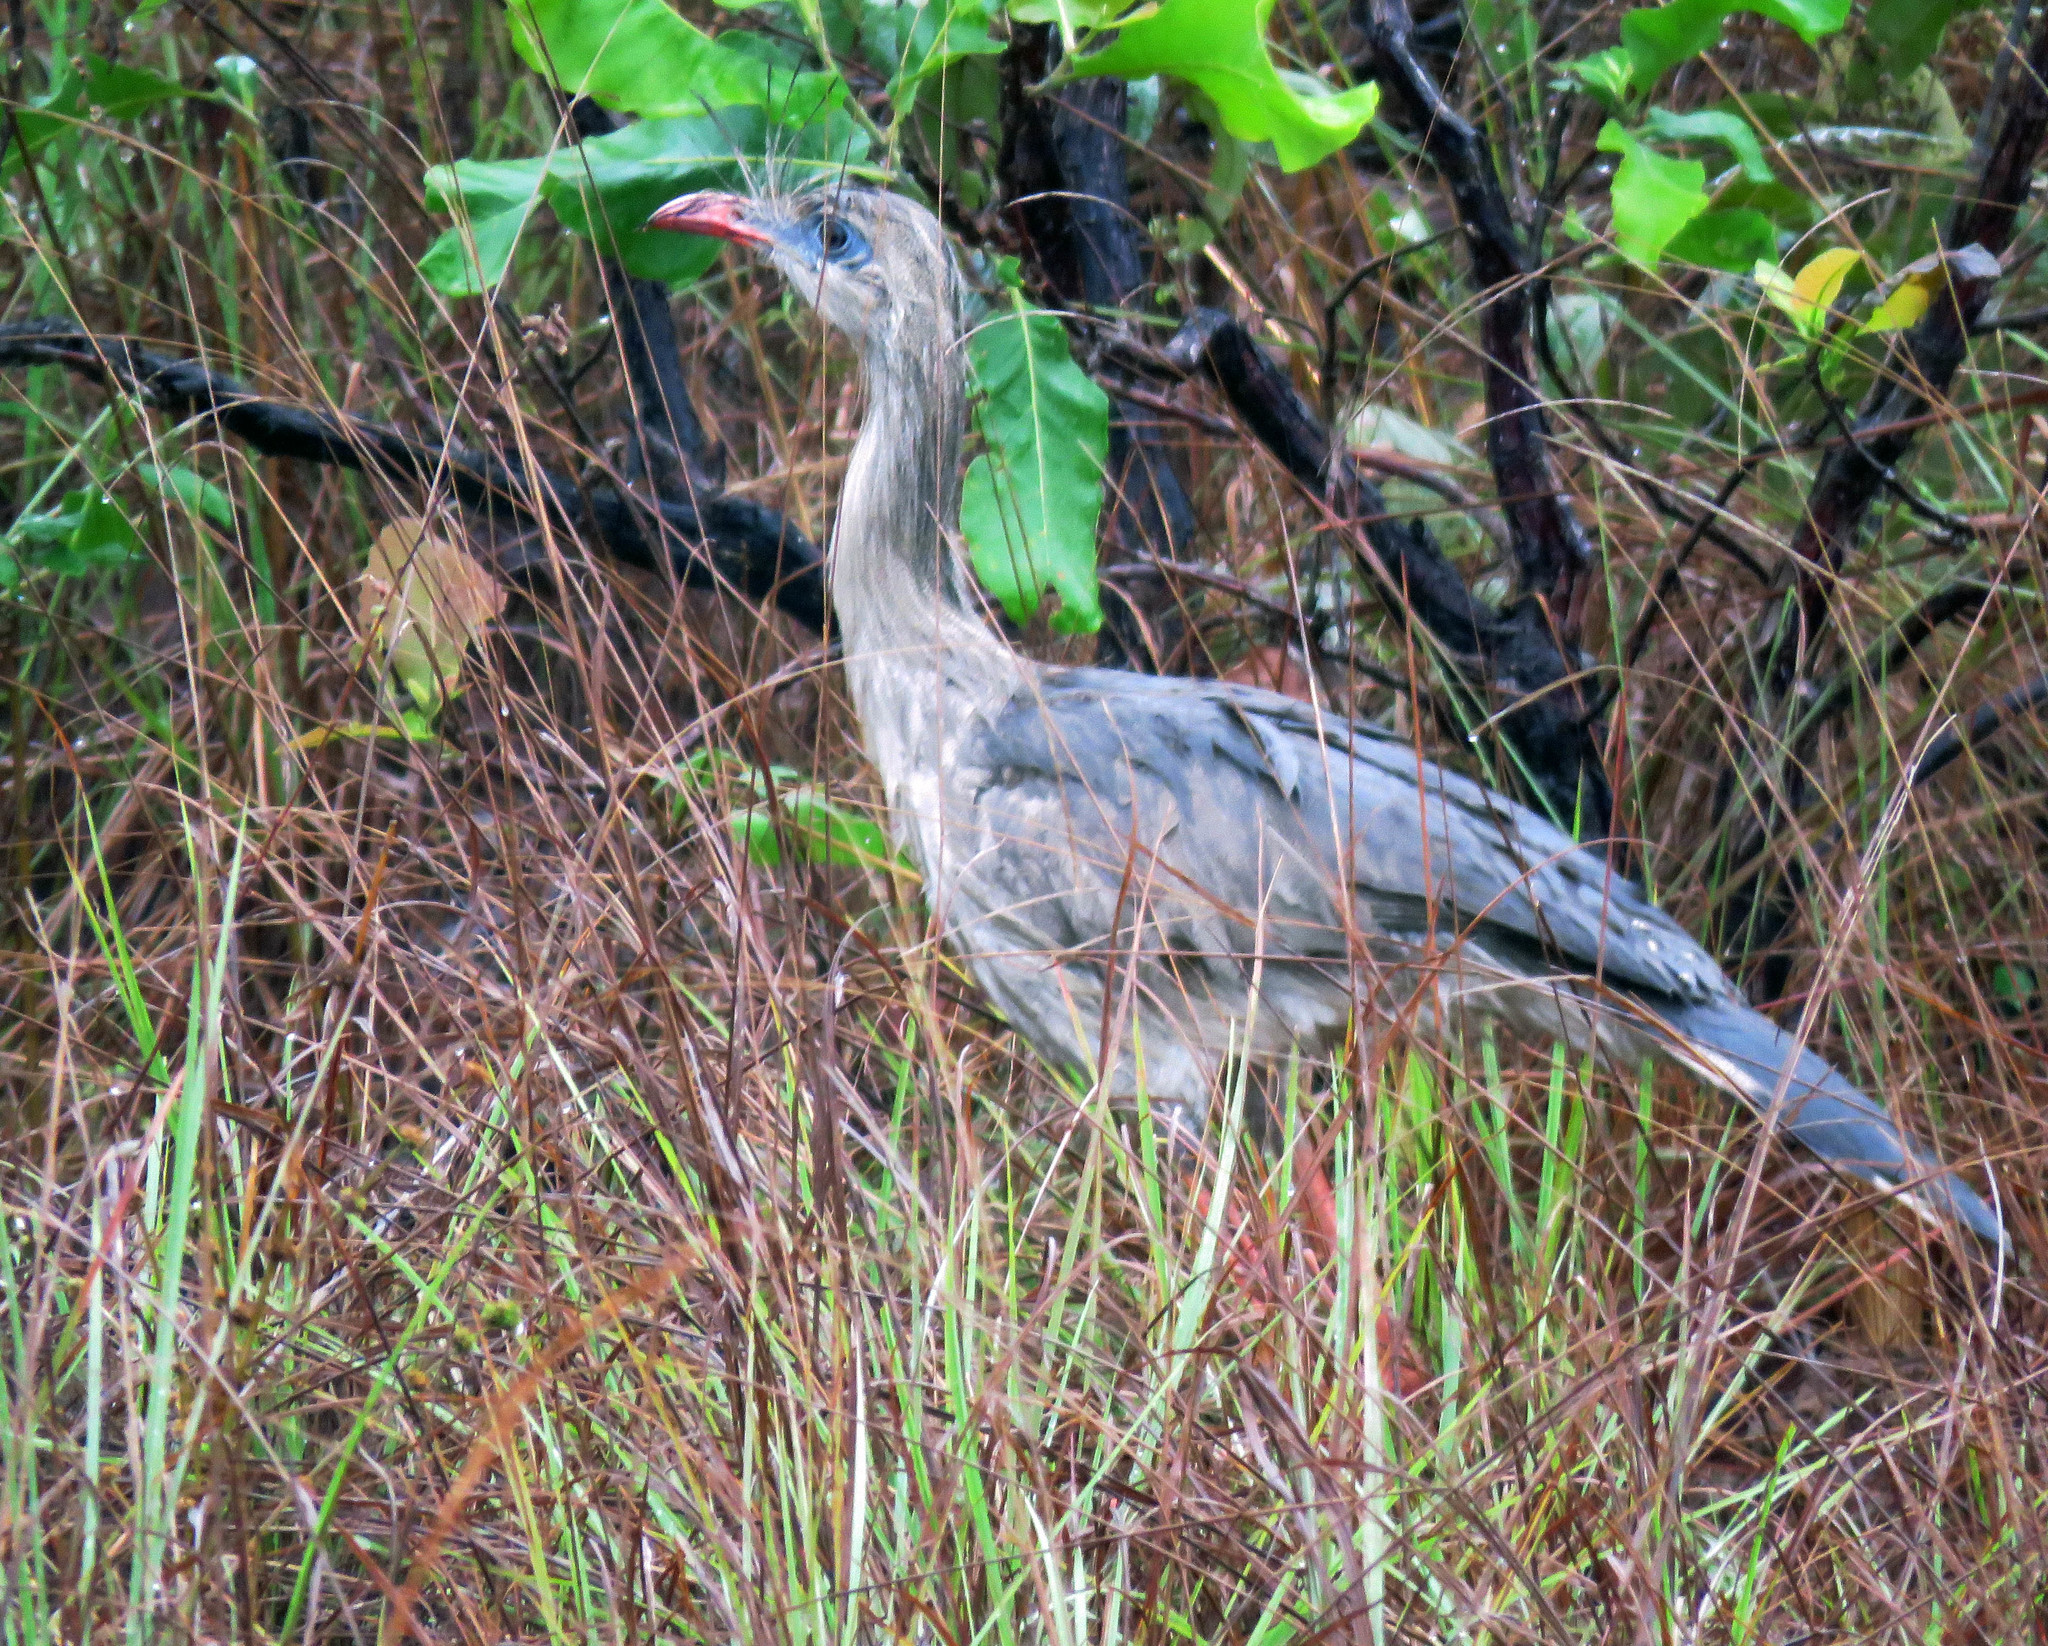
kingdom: Animalia
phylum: Chordata
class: Aves
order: Cariamiformes
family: Cariamidae
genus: Cariama
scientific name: Cariama cristata
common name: Red-legged seriema
